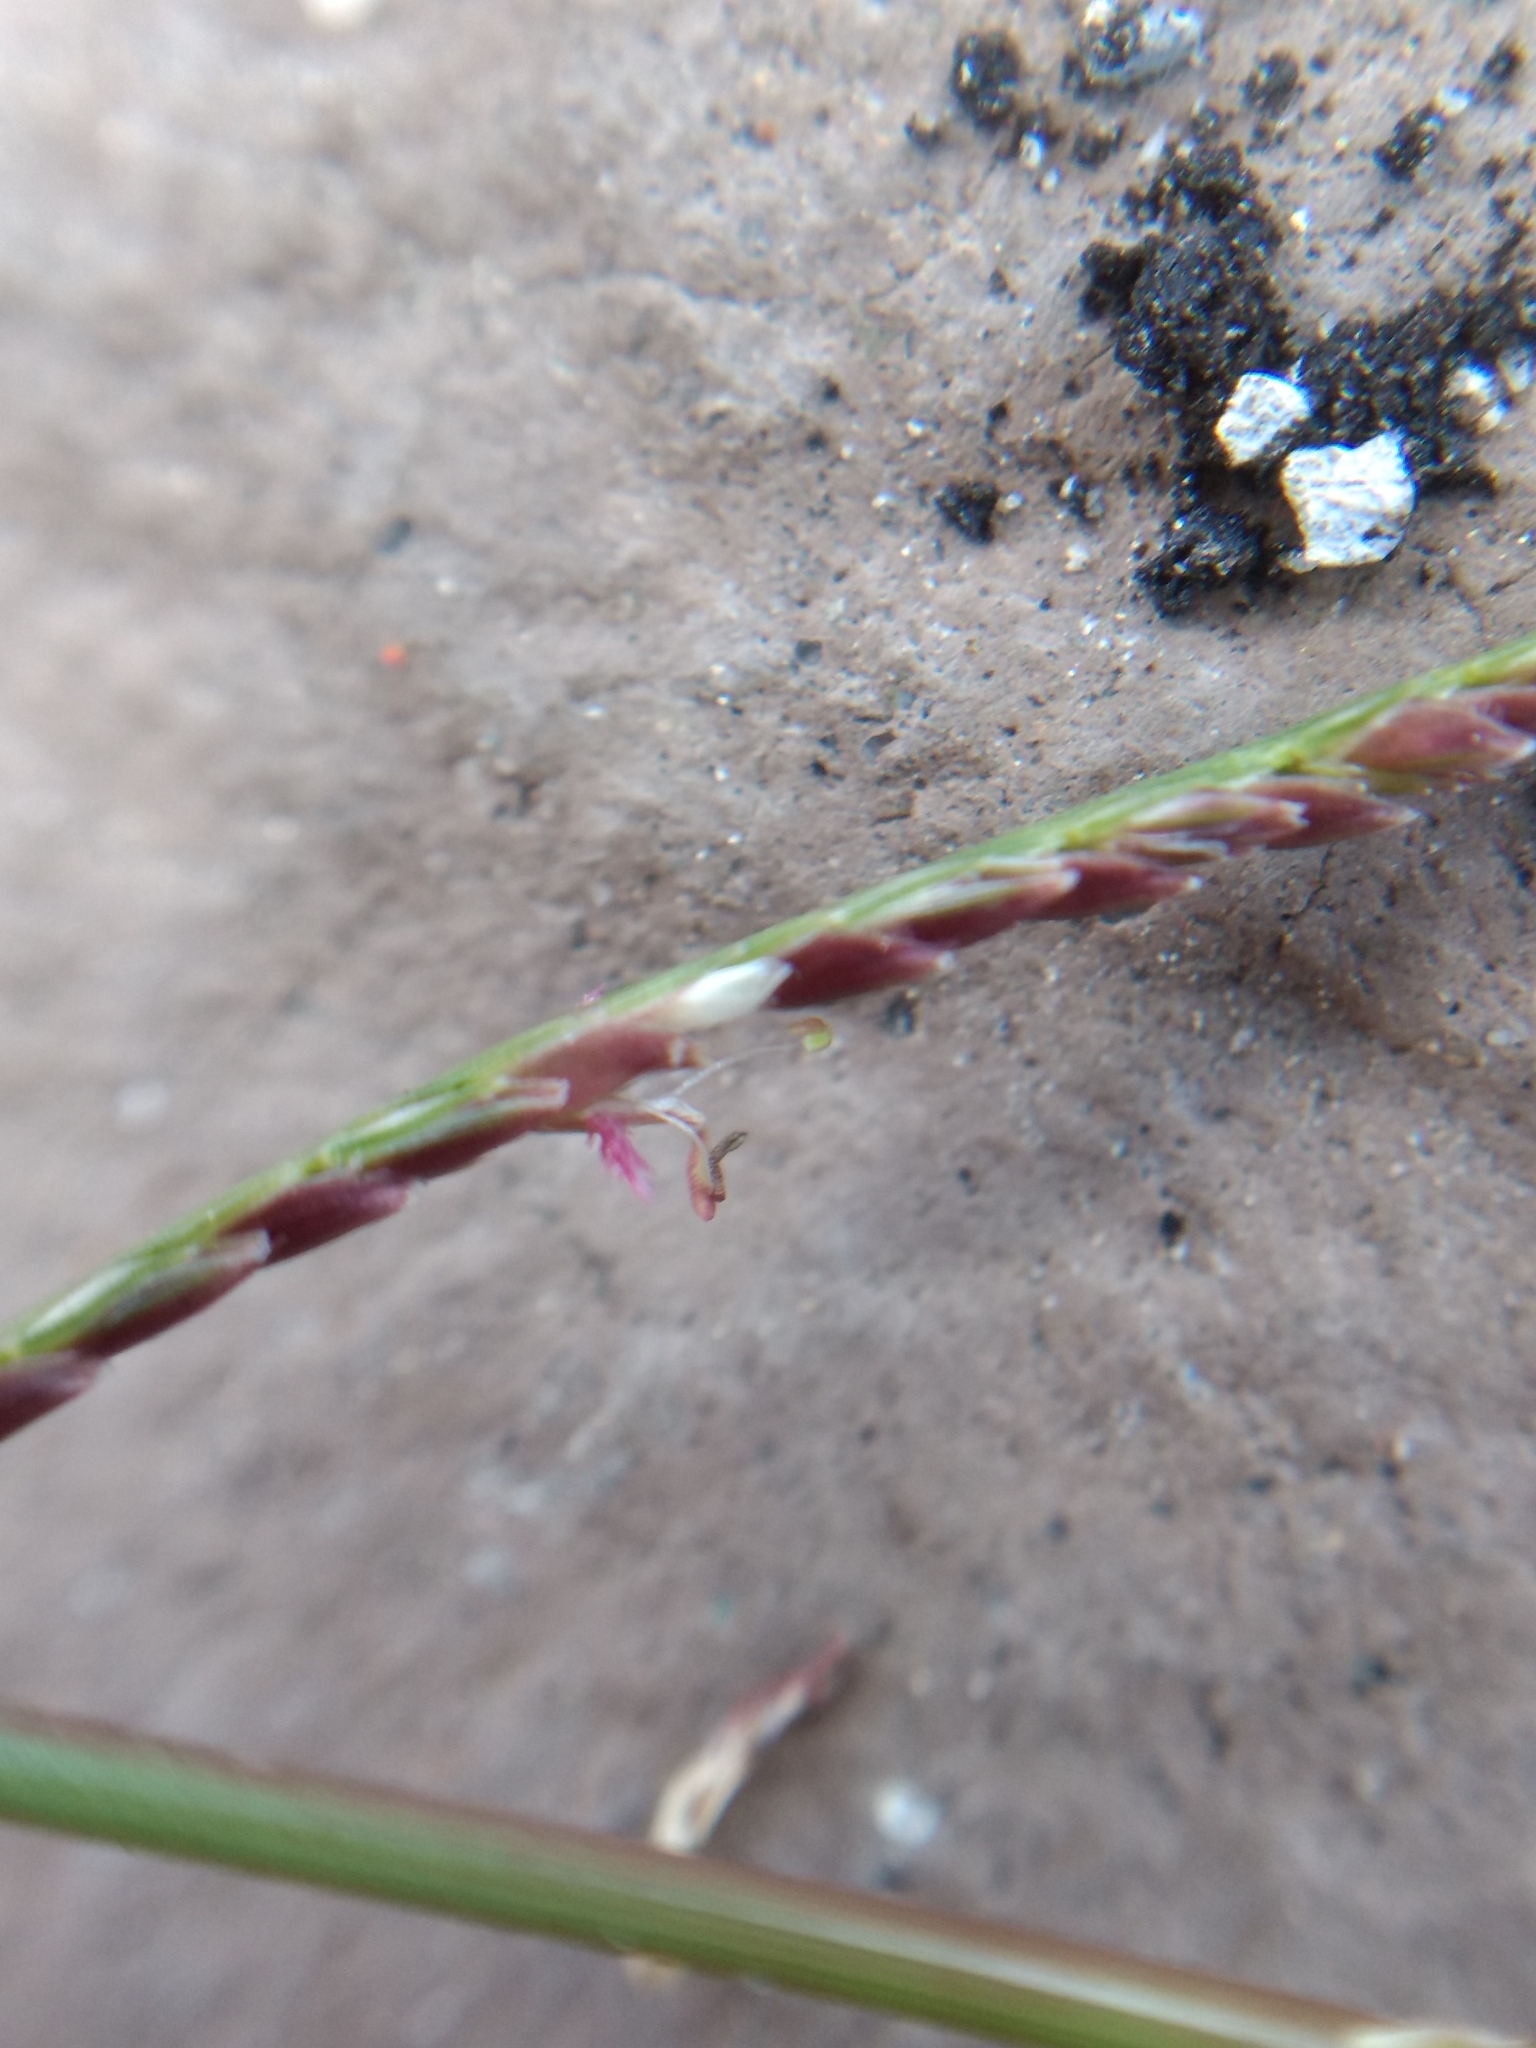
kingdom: Plantae
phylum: Tracheophyta
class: Liliopsida
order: Poales
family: Poaceae
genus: Cynodon
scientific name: Cynodon dactylon
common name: Bermuda grass
